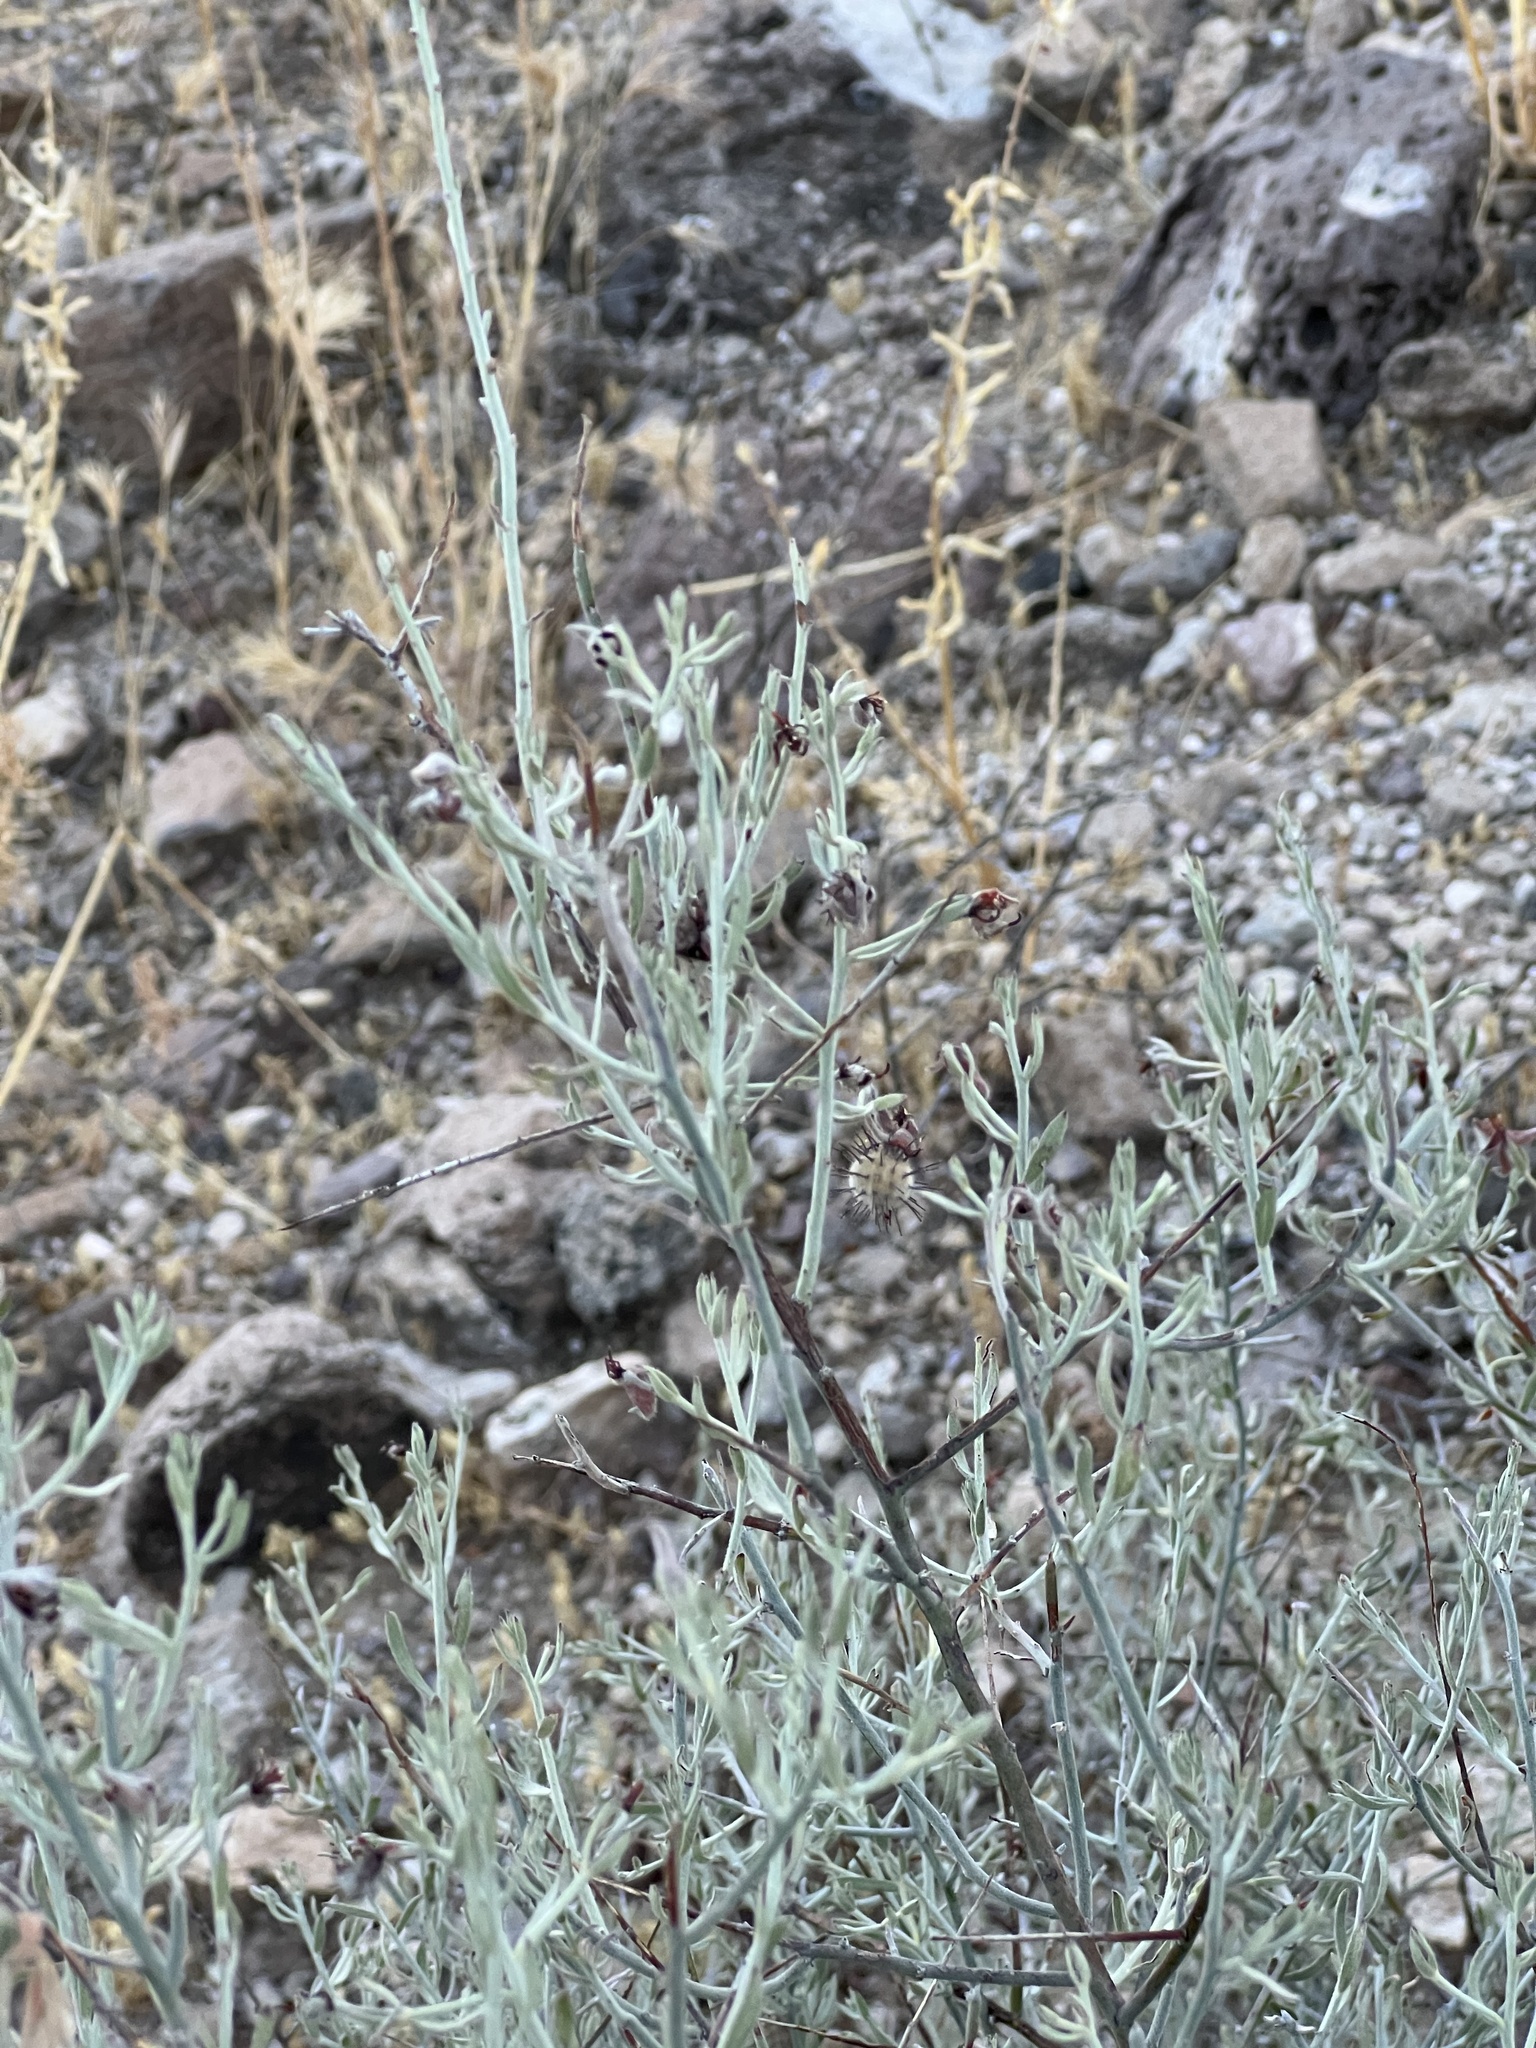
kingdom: Plantae
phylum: Tracheophyta
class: Magnoliopsida
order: Zygophyllales
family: Krameriaceae
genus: Krameria
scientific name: Krameria bicolor
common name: White ratany
